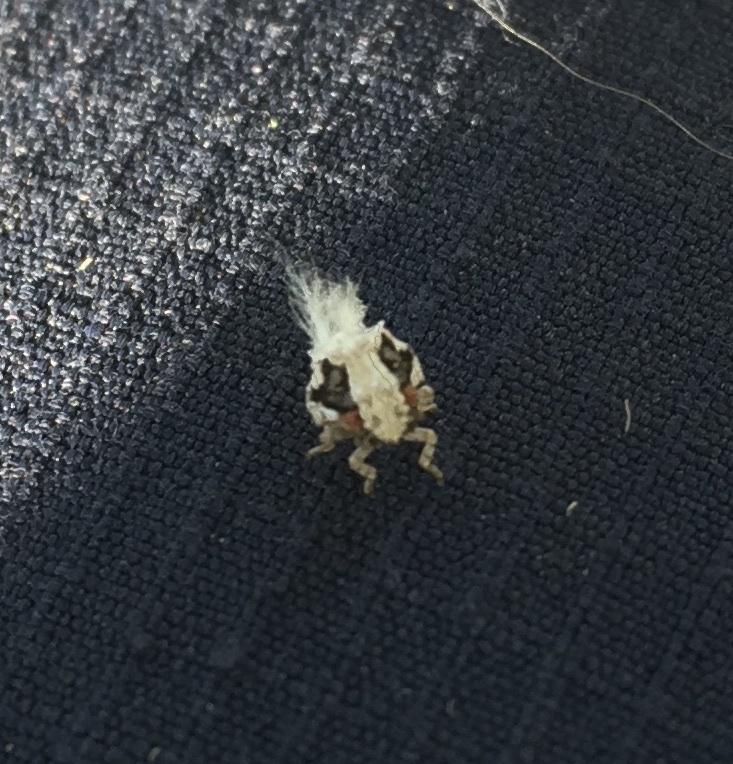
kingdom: Animalia
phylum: Arthropoda
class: Insecta
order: Hemiptera
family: Acanaloniidae
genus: Acanalonia
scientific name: Acanalonia servillei
